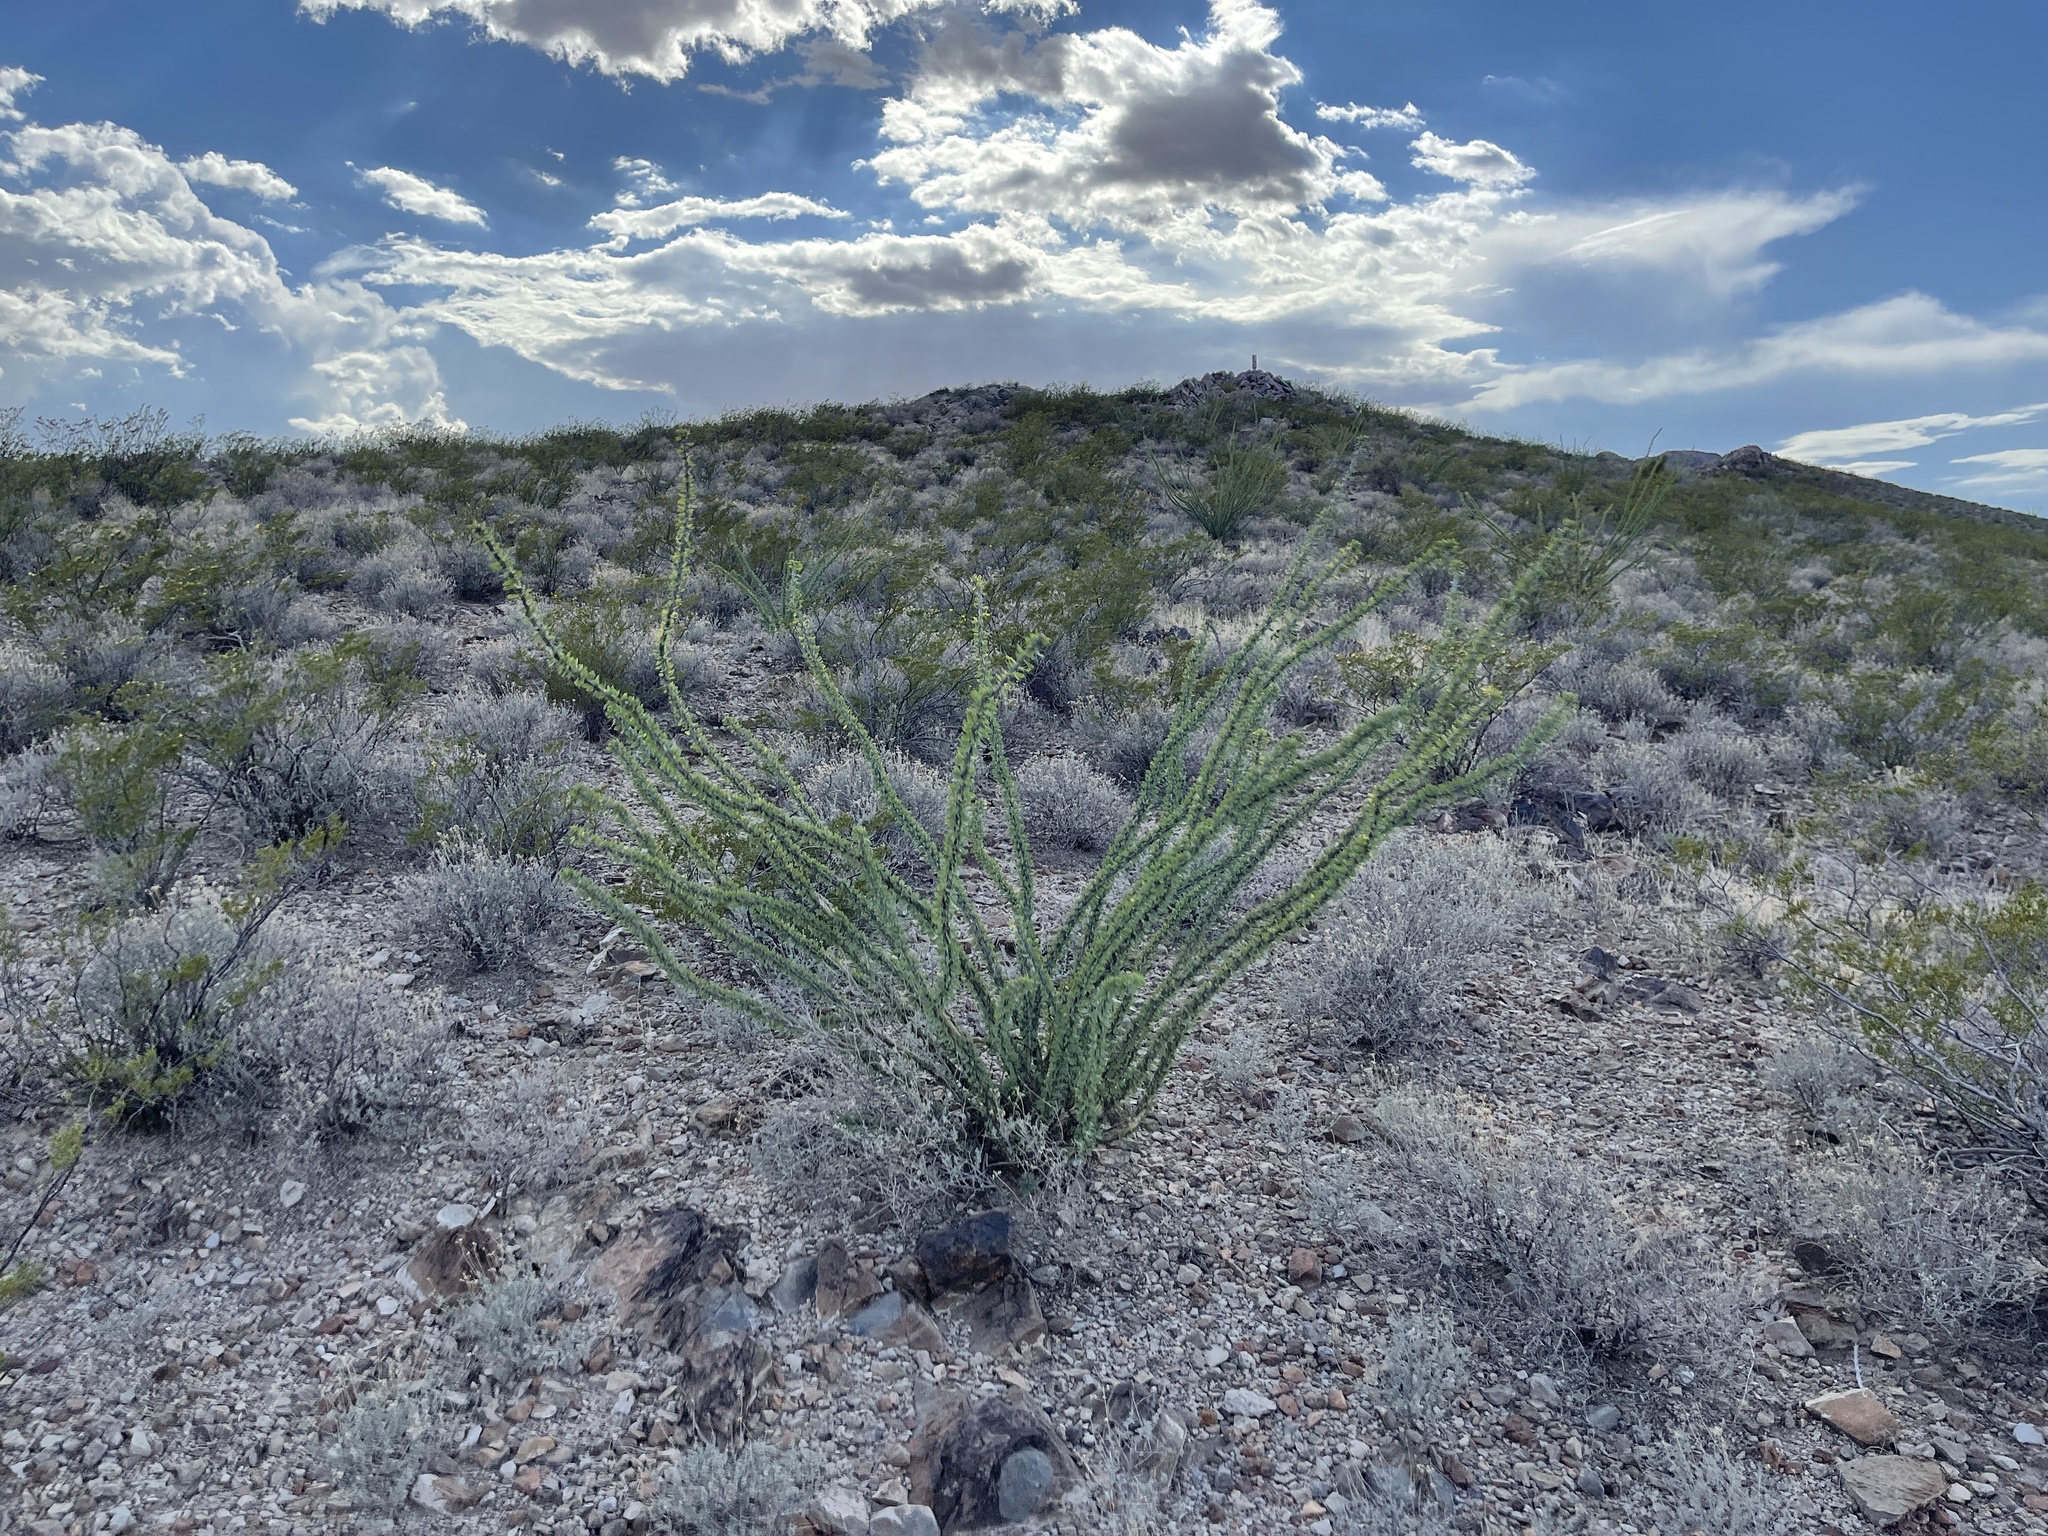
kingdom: Plantae
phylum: Tracheophyta
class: Magnoliopsida
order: Ericales
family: Fouquieriaceae
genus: Fouquieria
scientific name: Fouquieria splendens
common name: Vine-cactus
